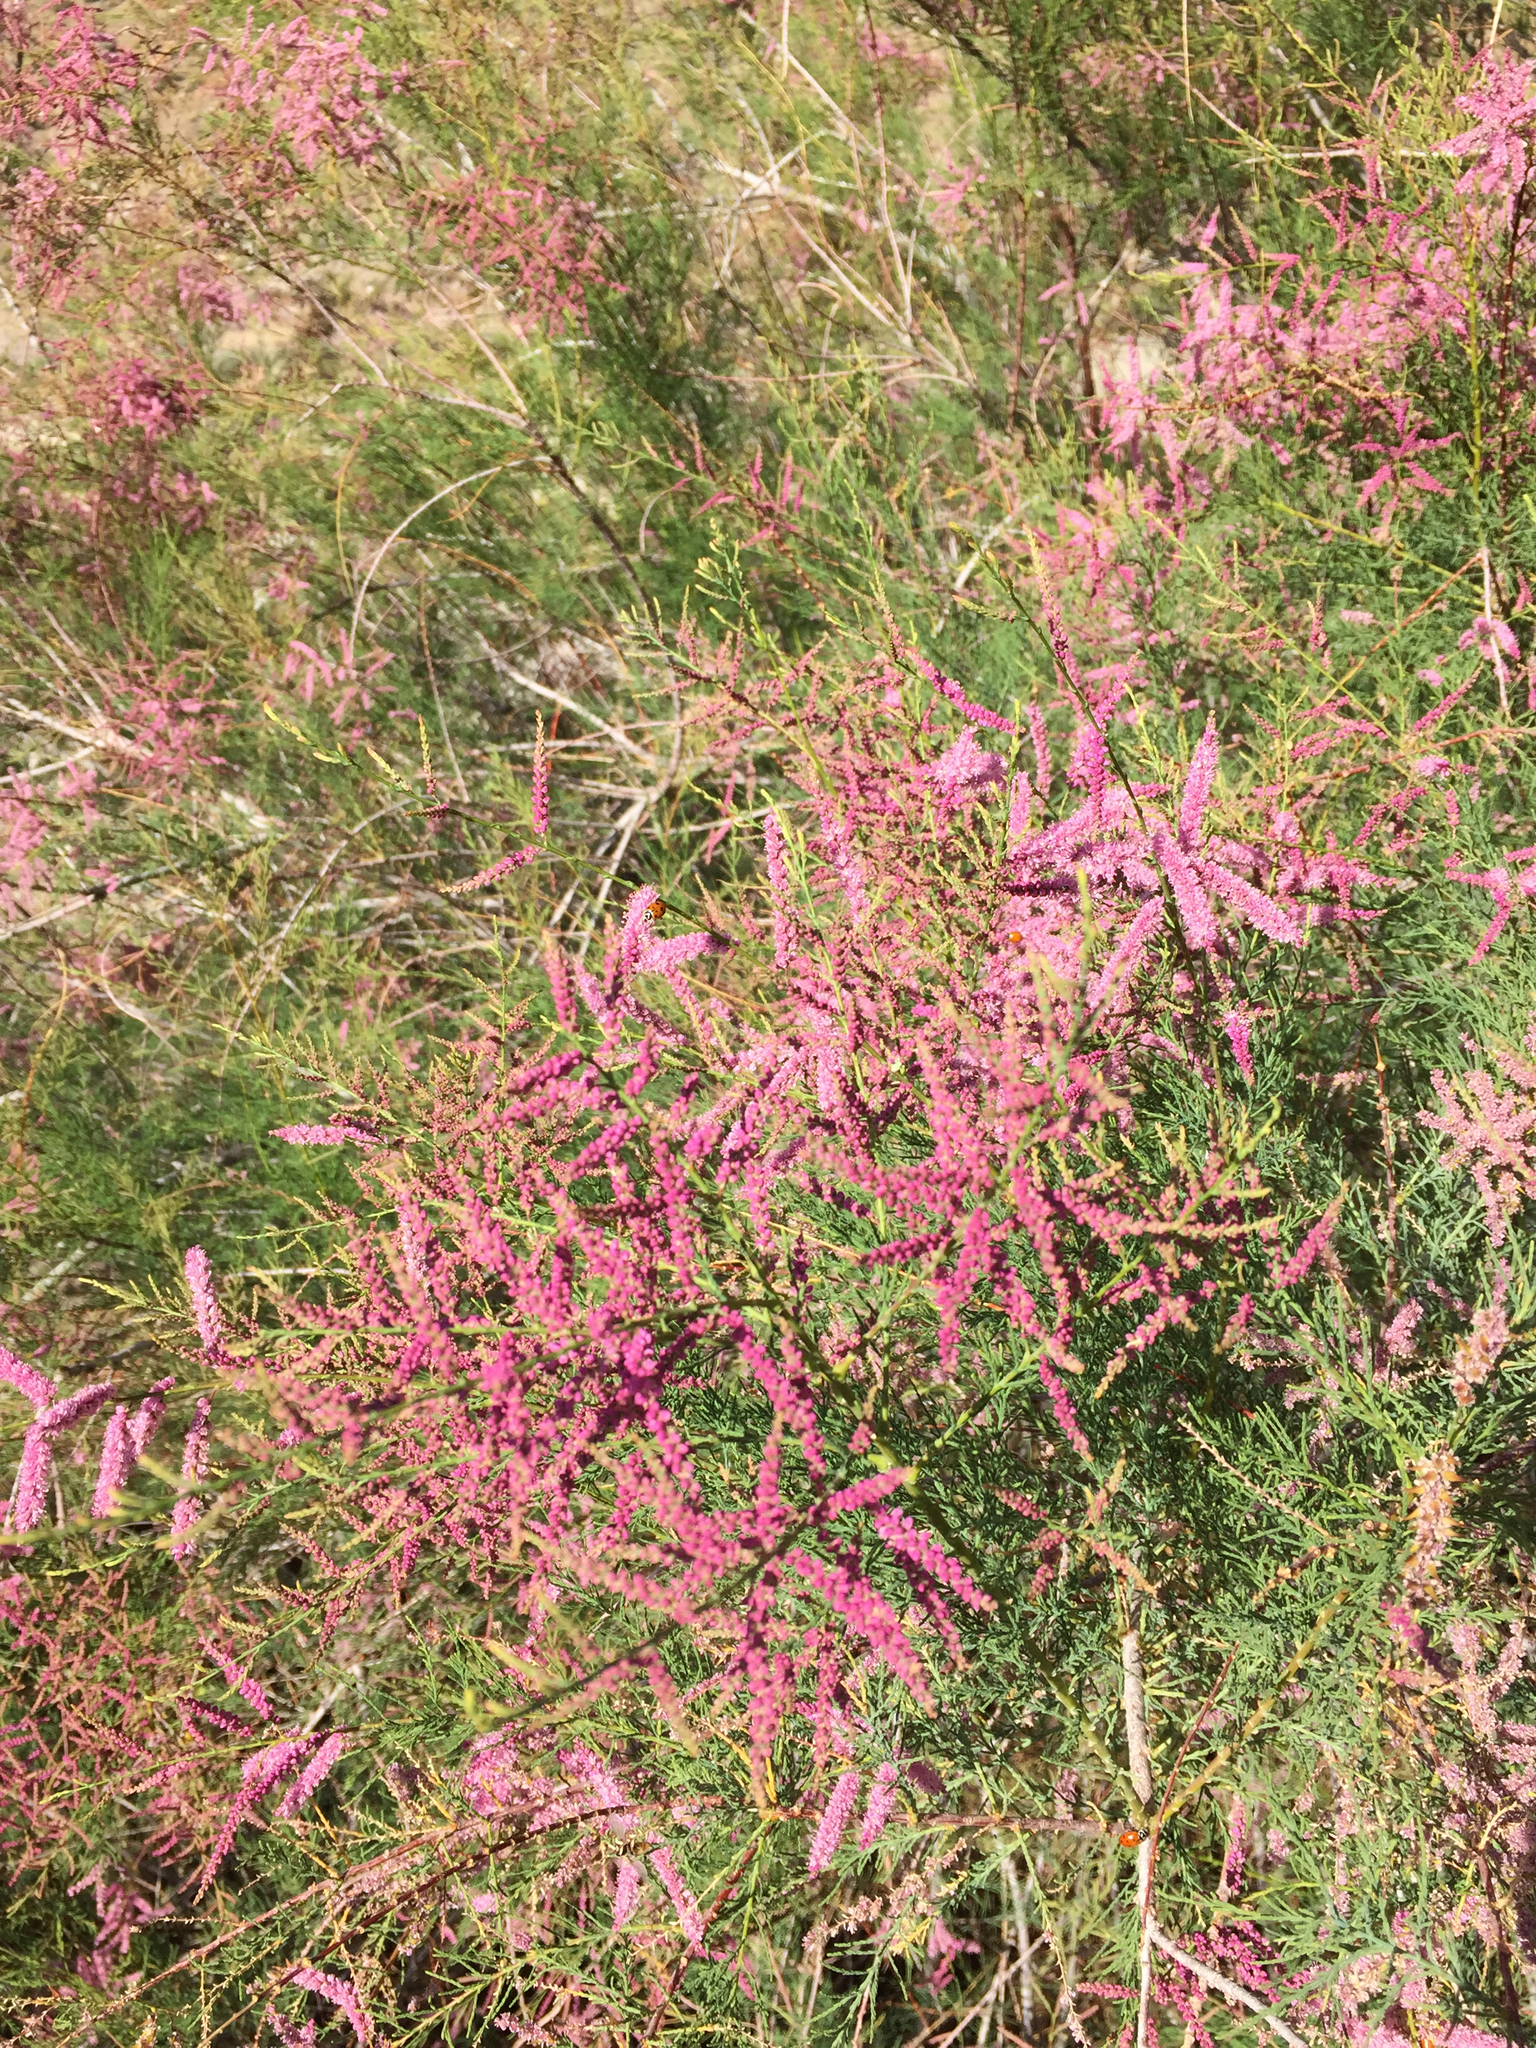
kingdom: Plantae
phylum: Tracheophyta
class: Magnoliopsida
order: Caryophyllales
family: Tamaricaceae
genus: Tamarix
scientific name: Tamarix ramosissima
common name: Pink tamarisk
